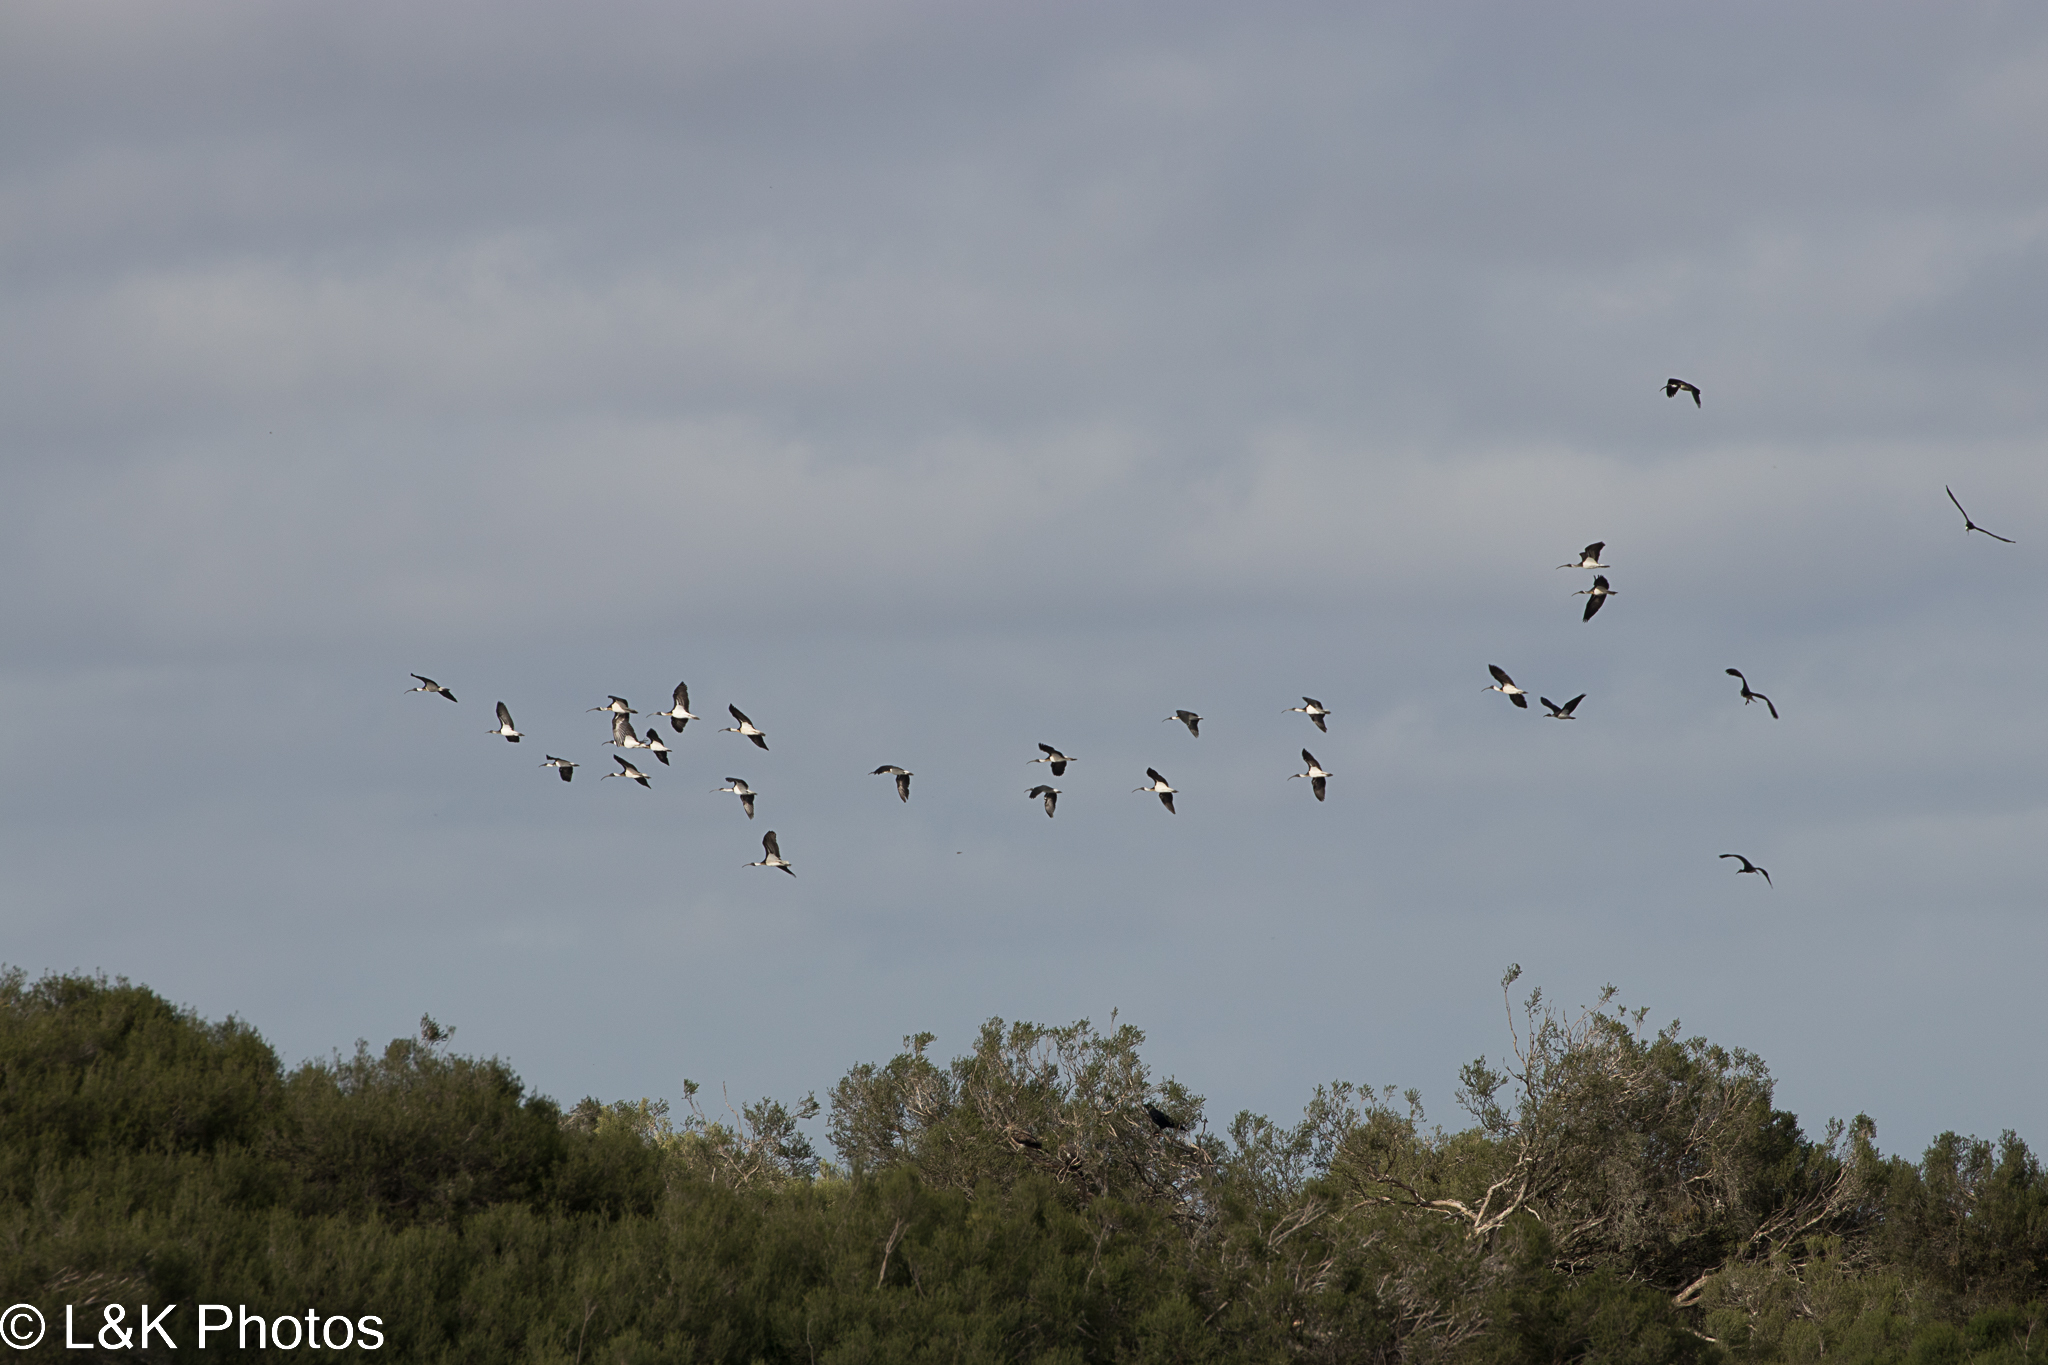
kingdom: Animalia
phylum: Chordata
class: Aves
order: Pelecaniformes
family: Threskiornithidae
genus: Threskiornis
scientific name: Threskiornis spinicollis
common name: Straw-necked ibis
